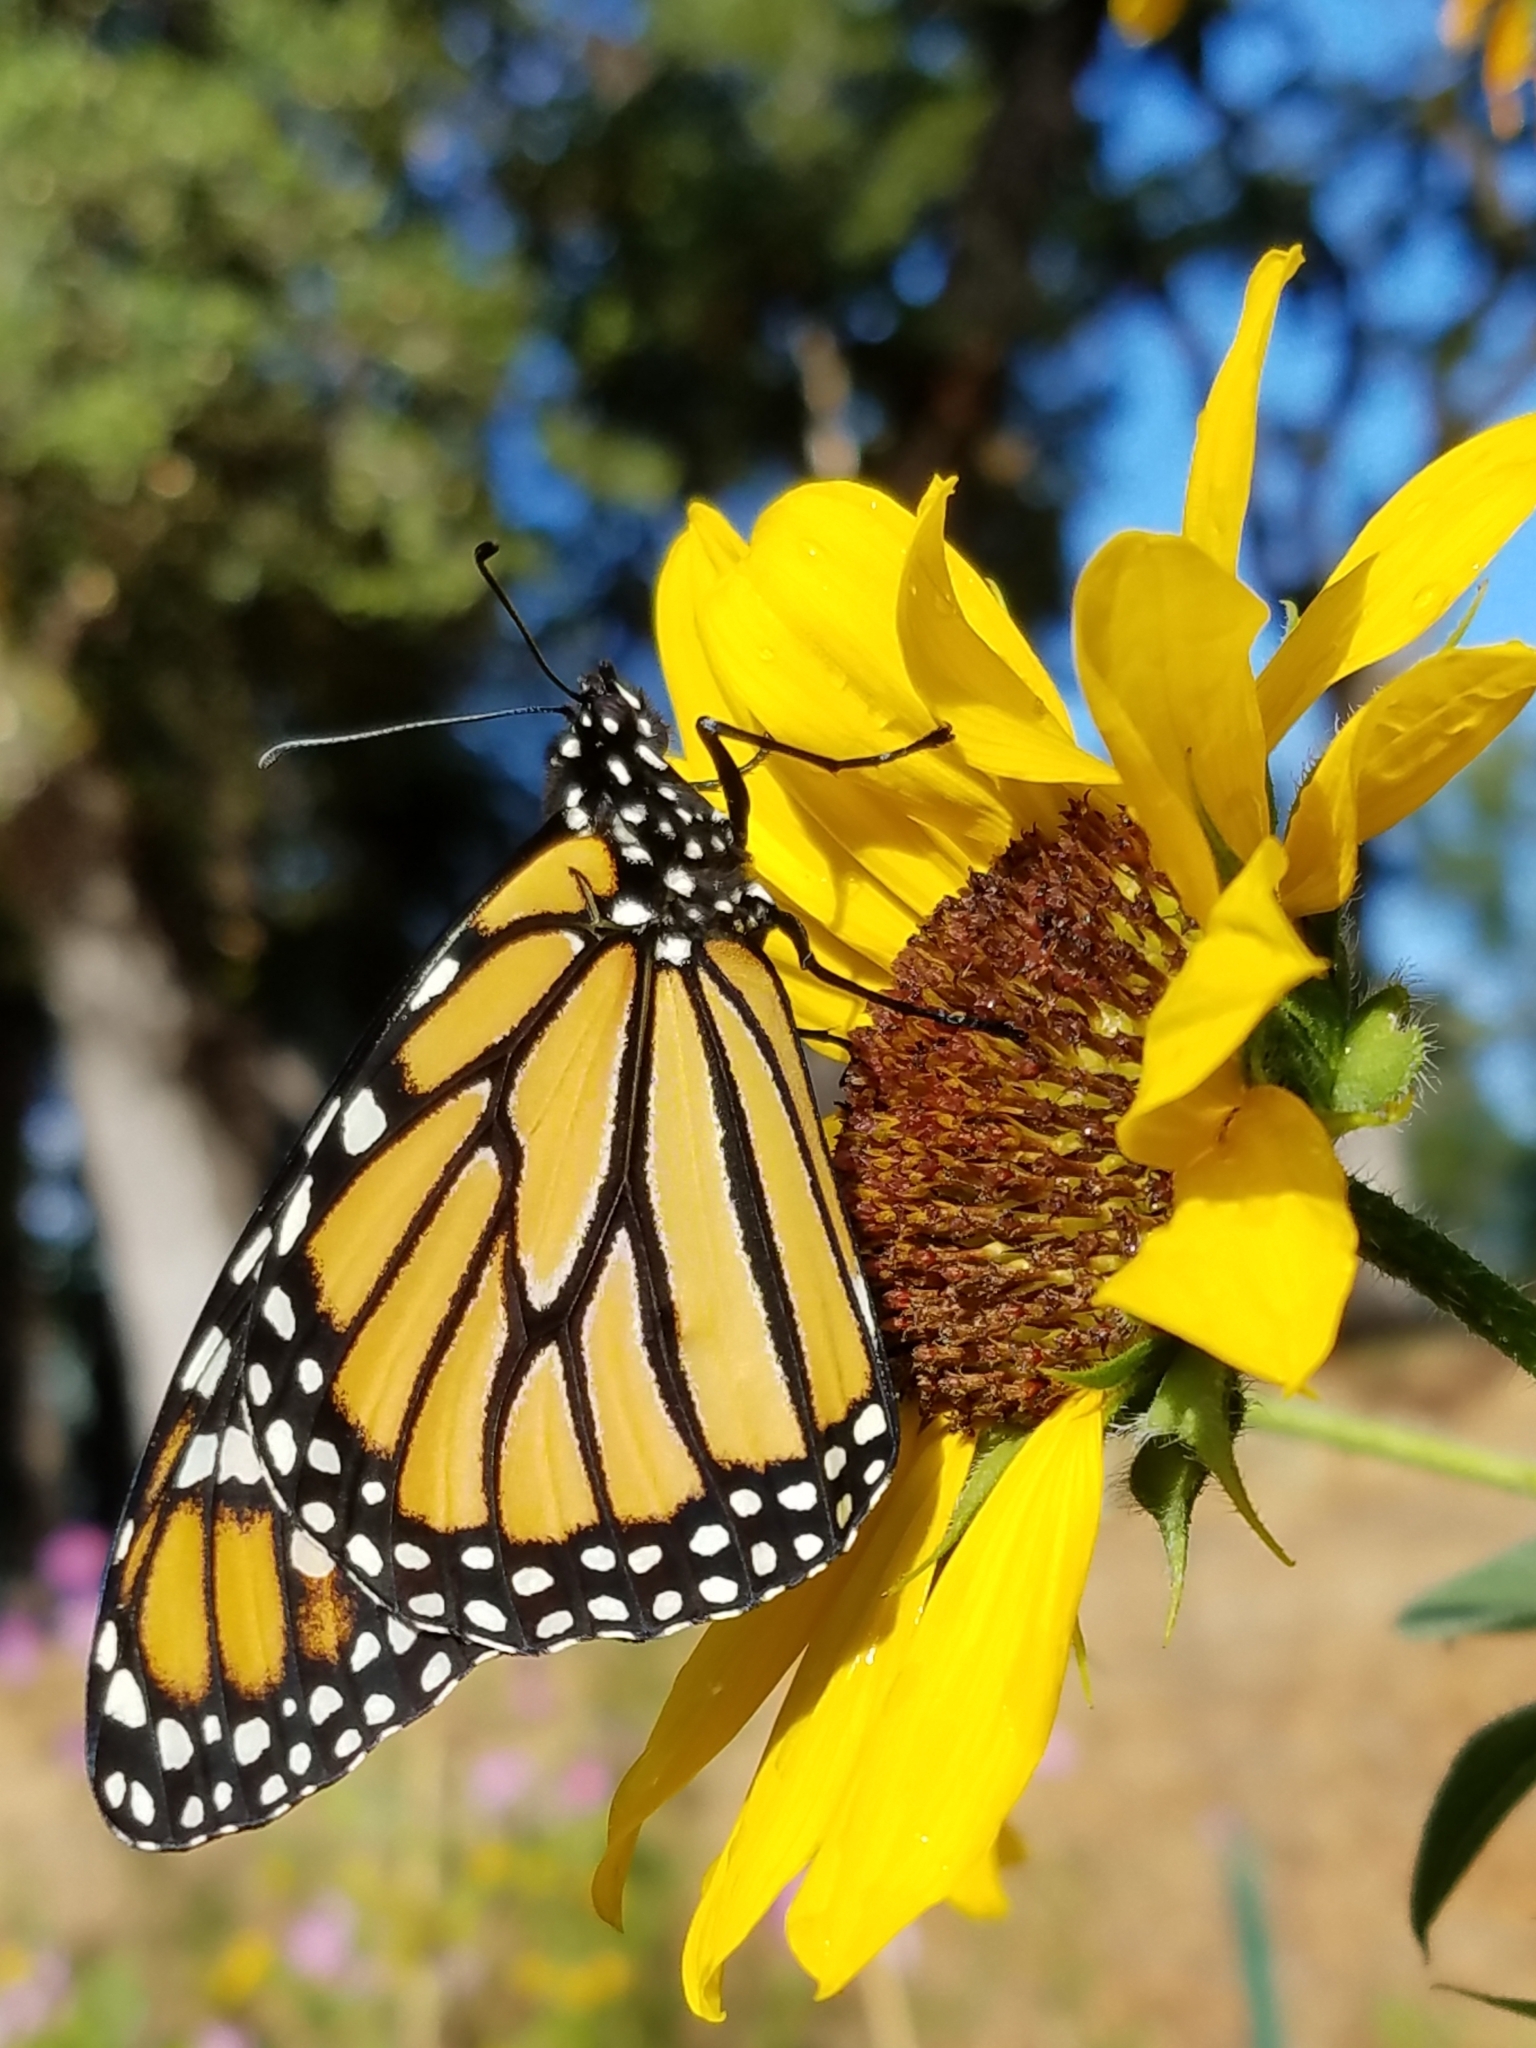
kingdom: Animalia
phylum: Arthropoda
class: Insecta
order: Lepidoptera
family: Nymphalidae
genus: Danaus
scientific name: Danaus plexippus
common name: Monarch
